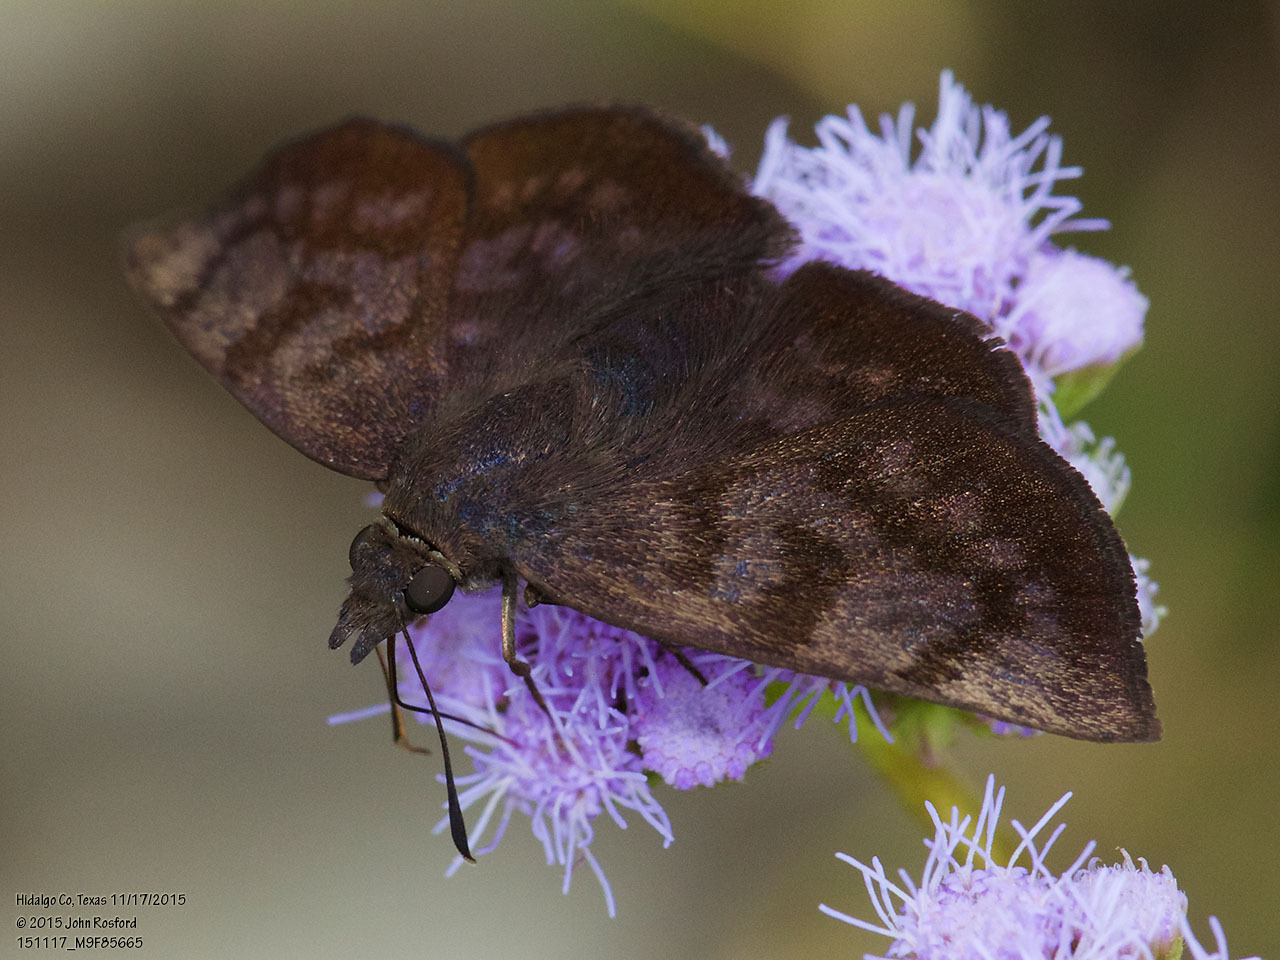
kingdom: Animalia
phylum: Arthropoda
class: Insecta
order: Lepidoptera
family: Hesperiidae
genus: Pellicia
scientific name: Pellicia costimacula
